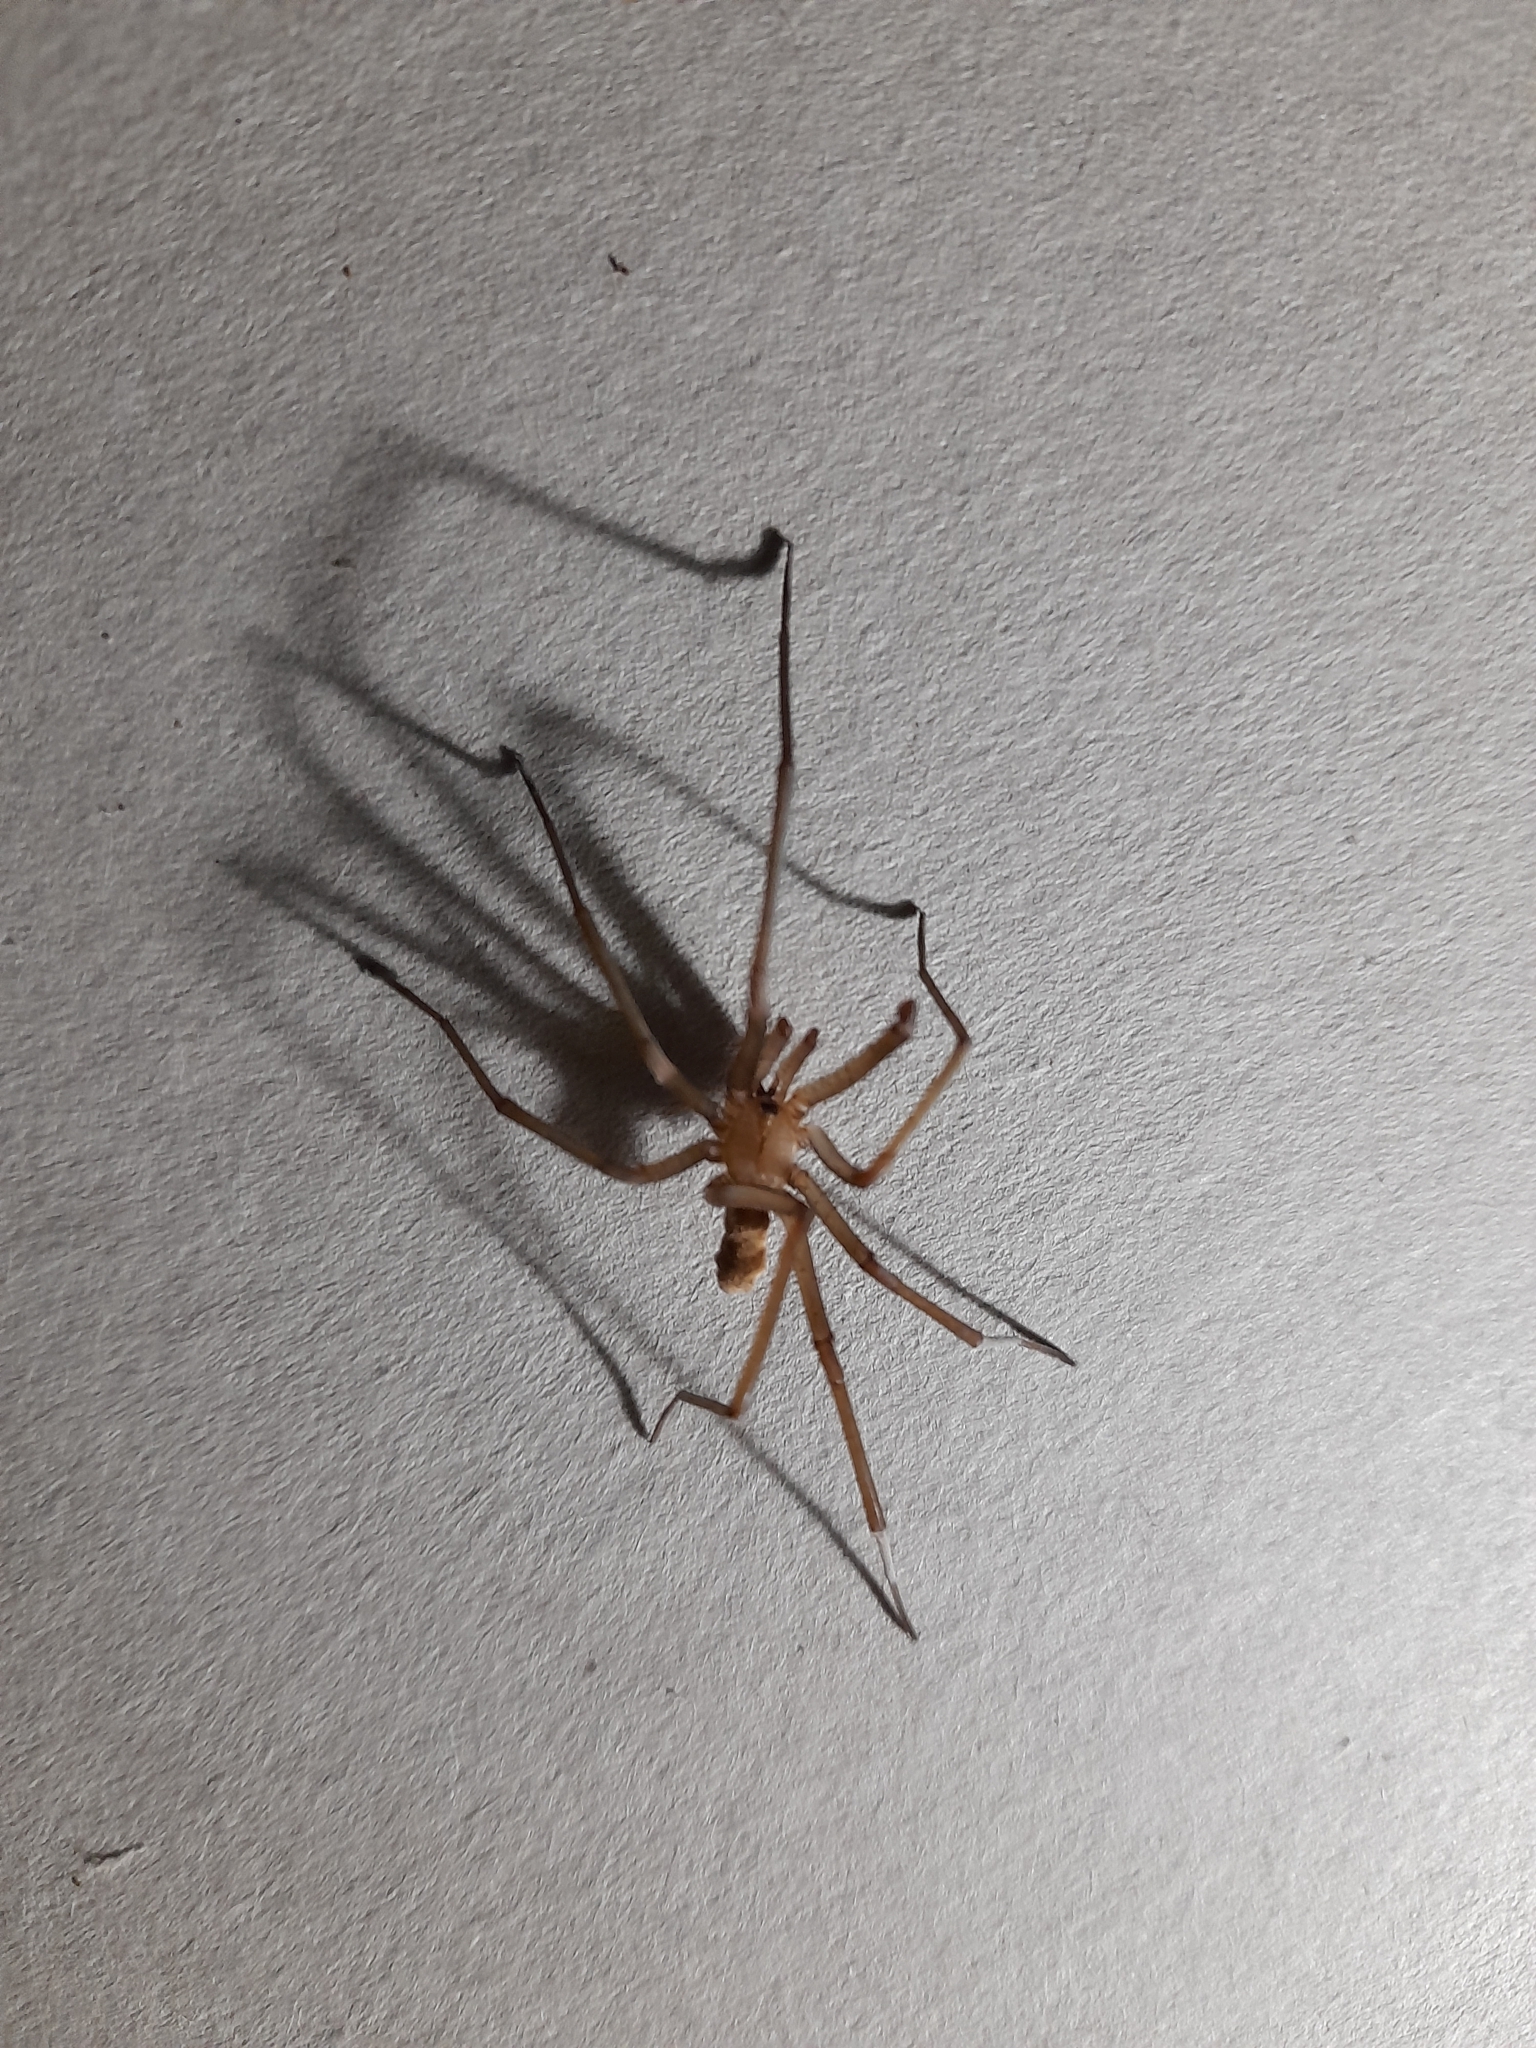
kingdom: Animalia
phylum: Arthropoda
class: Arachnida
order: Araneae
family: Filistatidae
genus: Kukulcania
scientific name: Kukulcania hibernalis
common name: Crevice weaver
